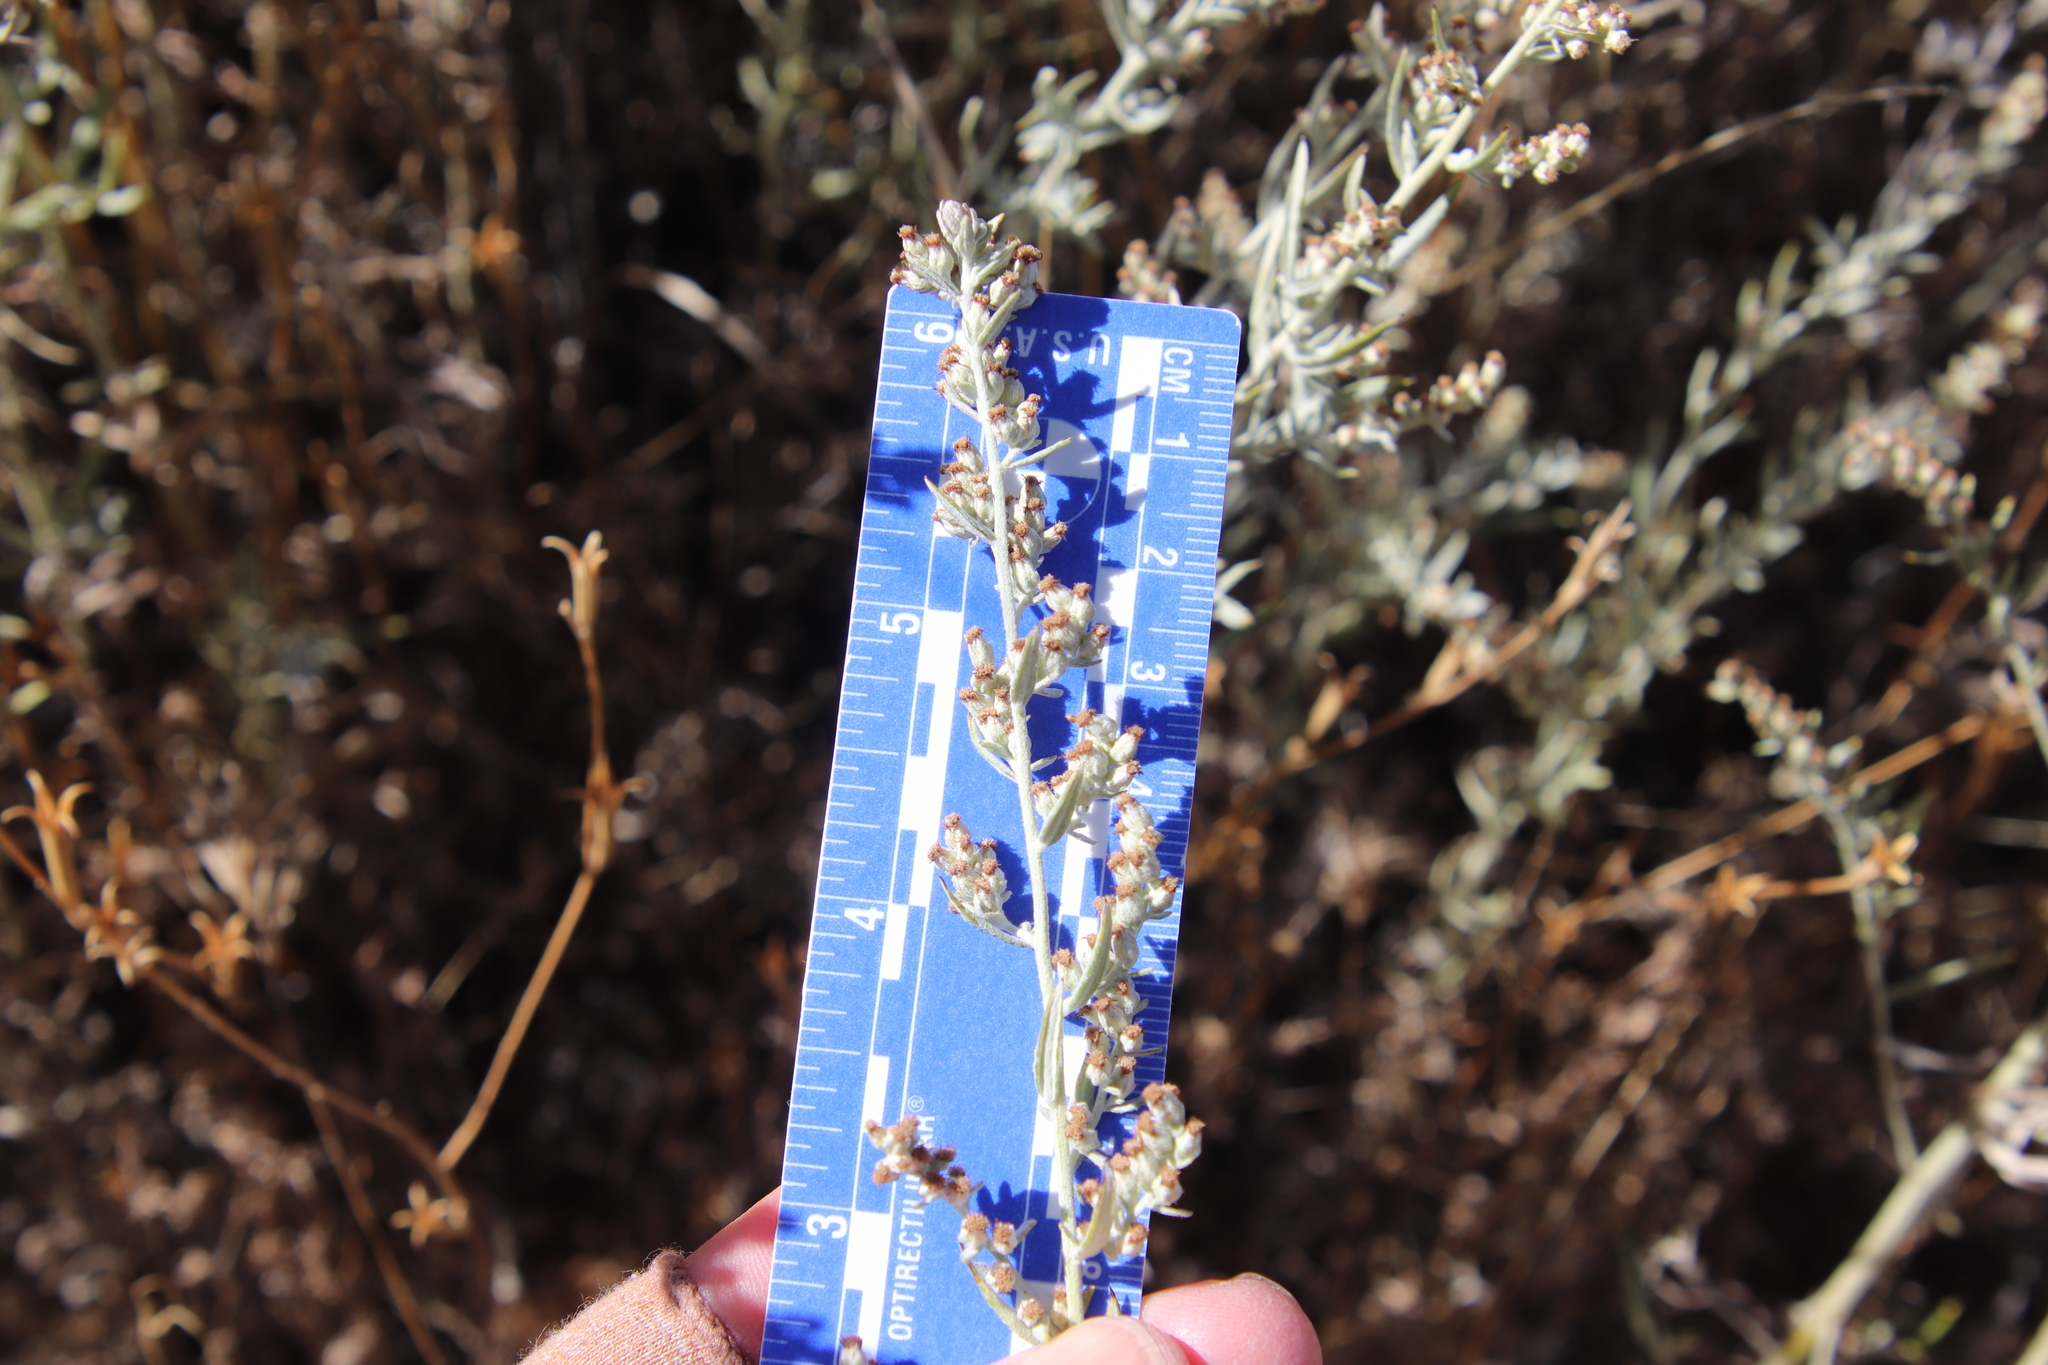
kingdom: Plantae
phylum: Tracheophyta
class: Magnoliopsida
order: Asterales
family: Asteraceae
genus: Artemisia
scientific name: Artemisia ludoviciana
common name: Western mugwort
